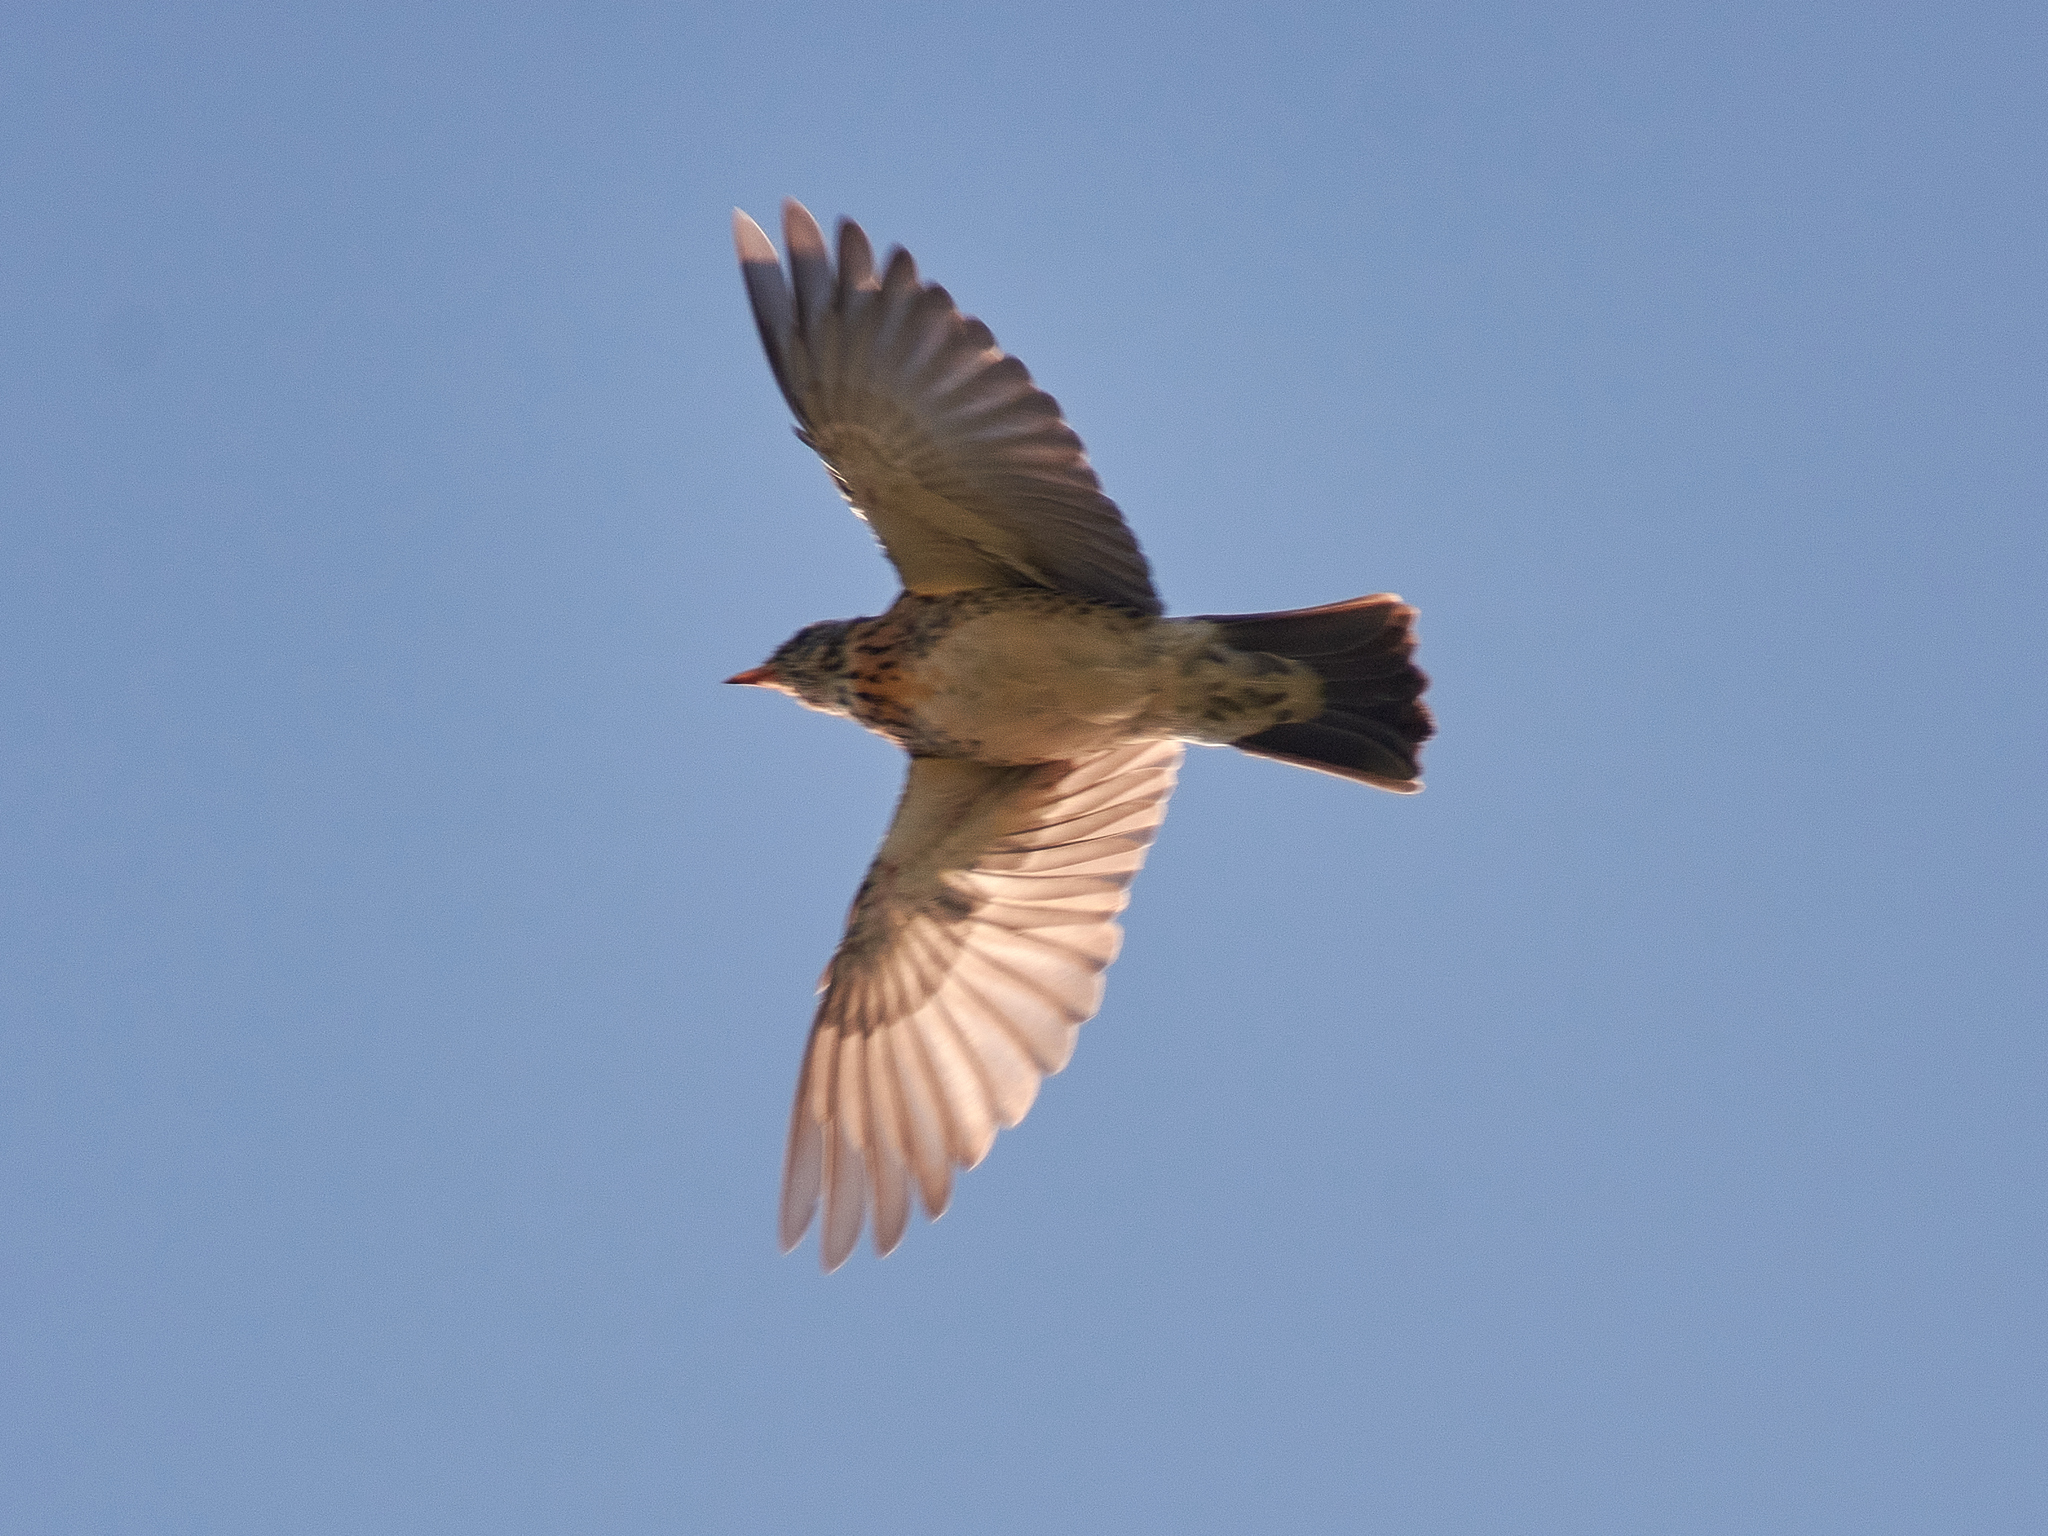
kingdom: Animalia
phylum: Chordata
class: Aves
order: Passeriformes
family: Turdidae
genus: Turdus
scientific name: Turdus pilaris
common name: Fieldfare
